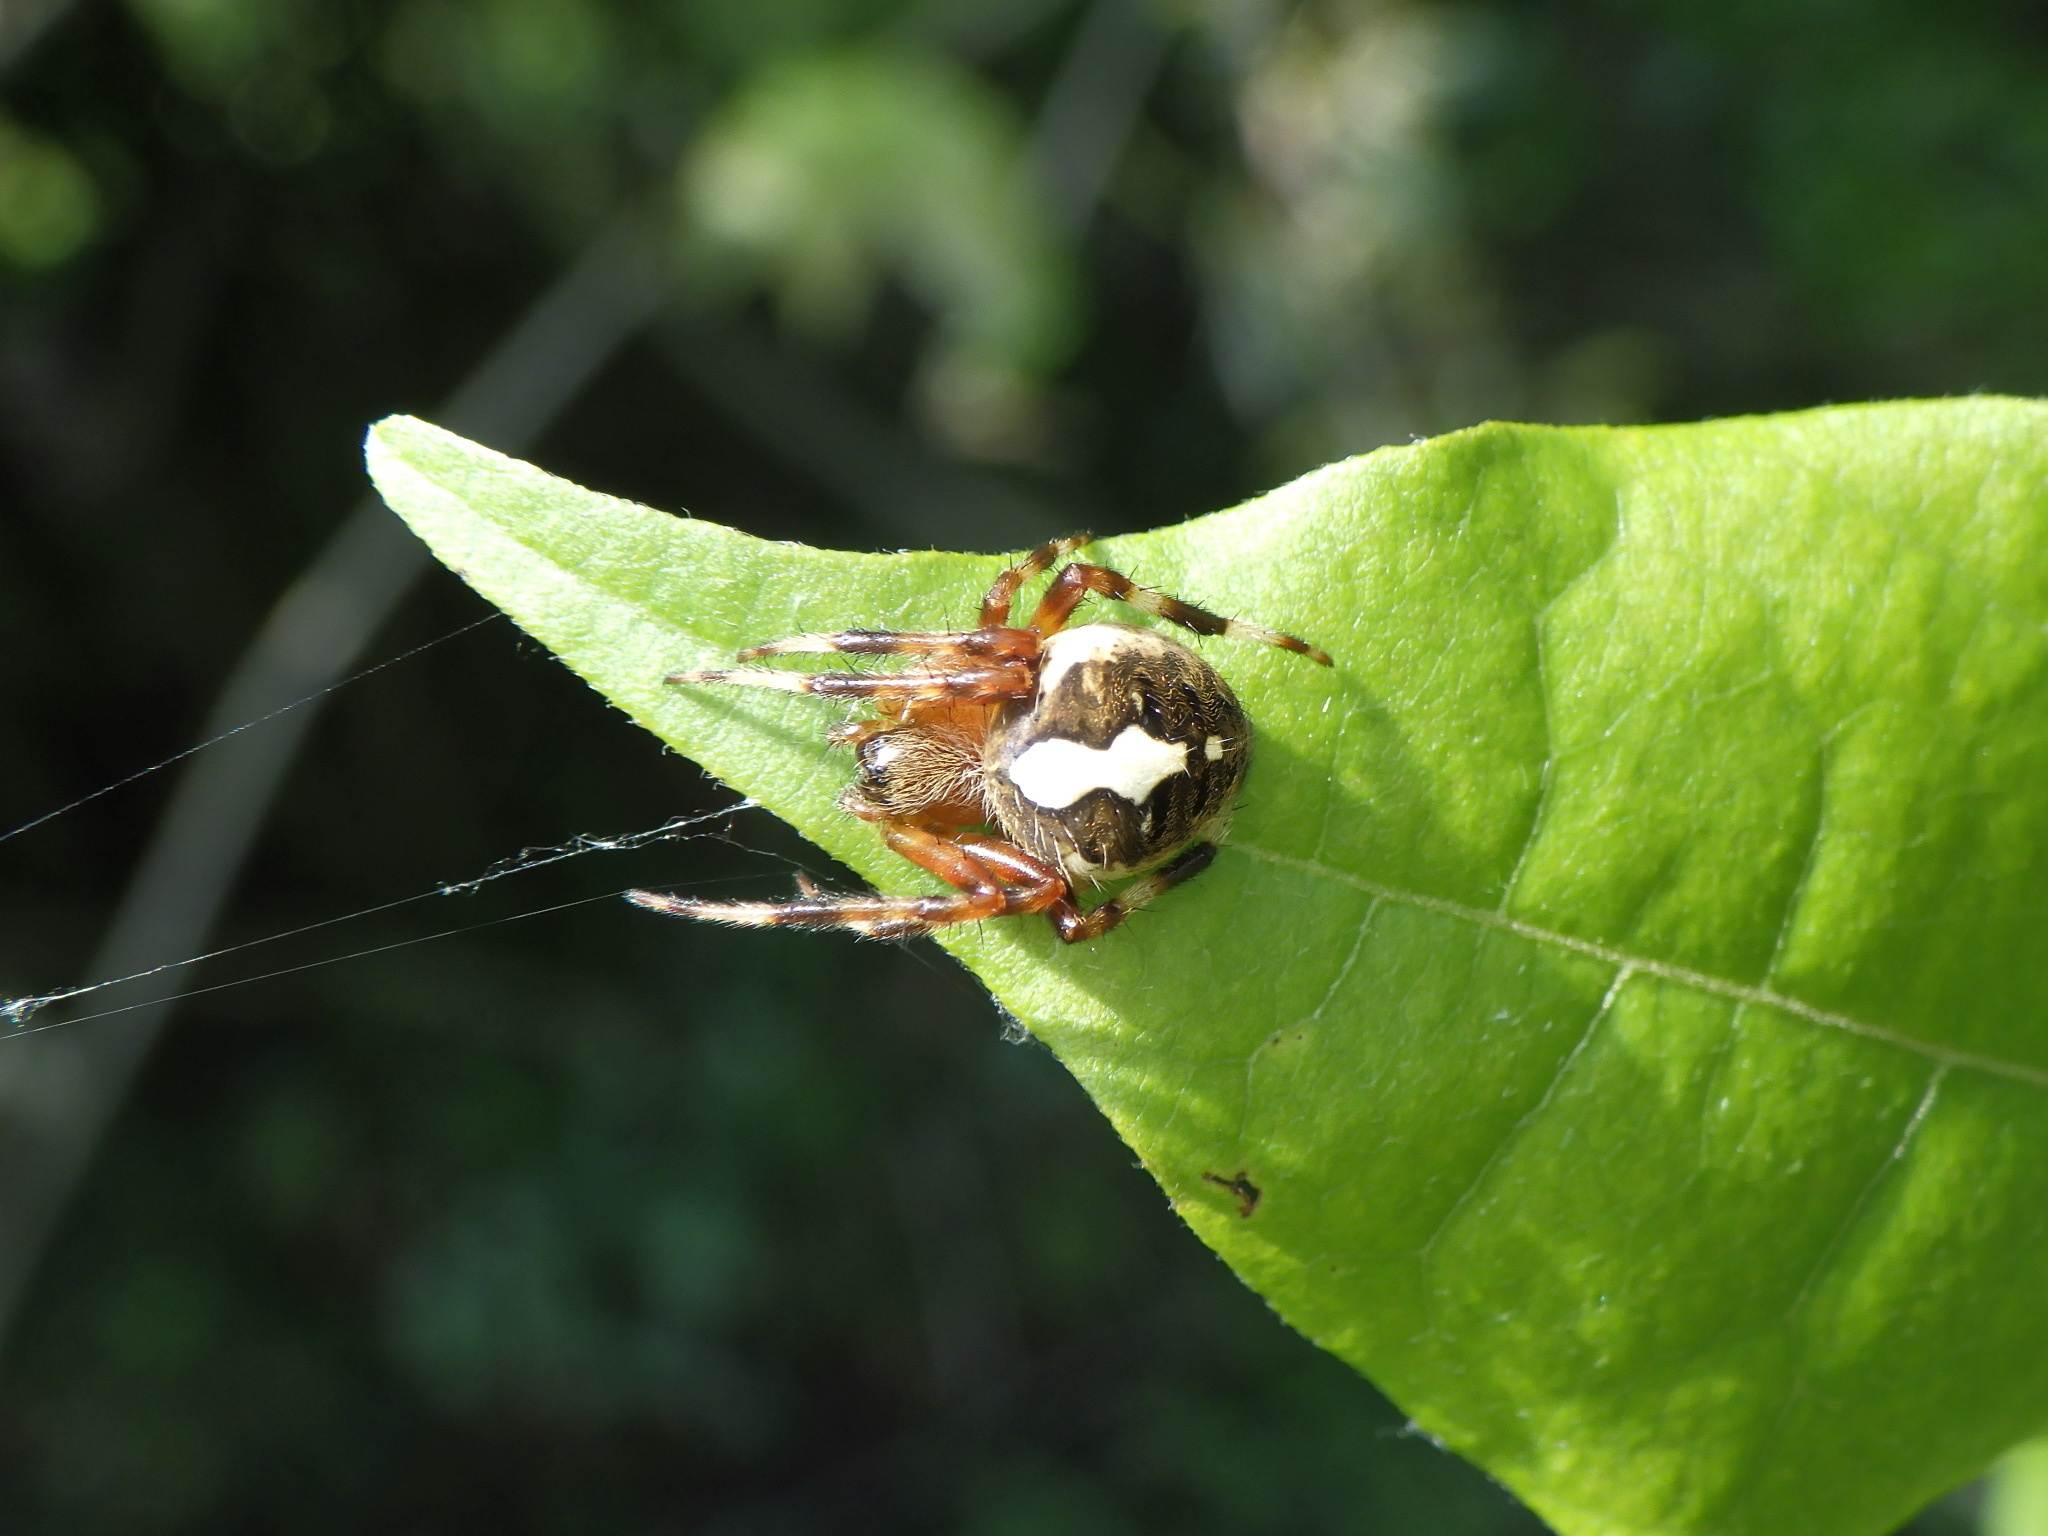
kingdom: Animalia
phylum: Arthropoda
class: Arachnida
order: Araneae
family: Araneidae
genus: Neoscona
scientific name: Neoscona scylla
